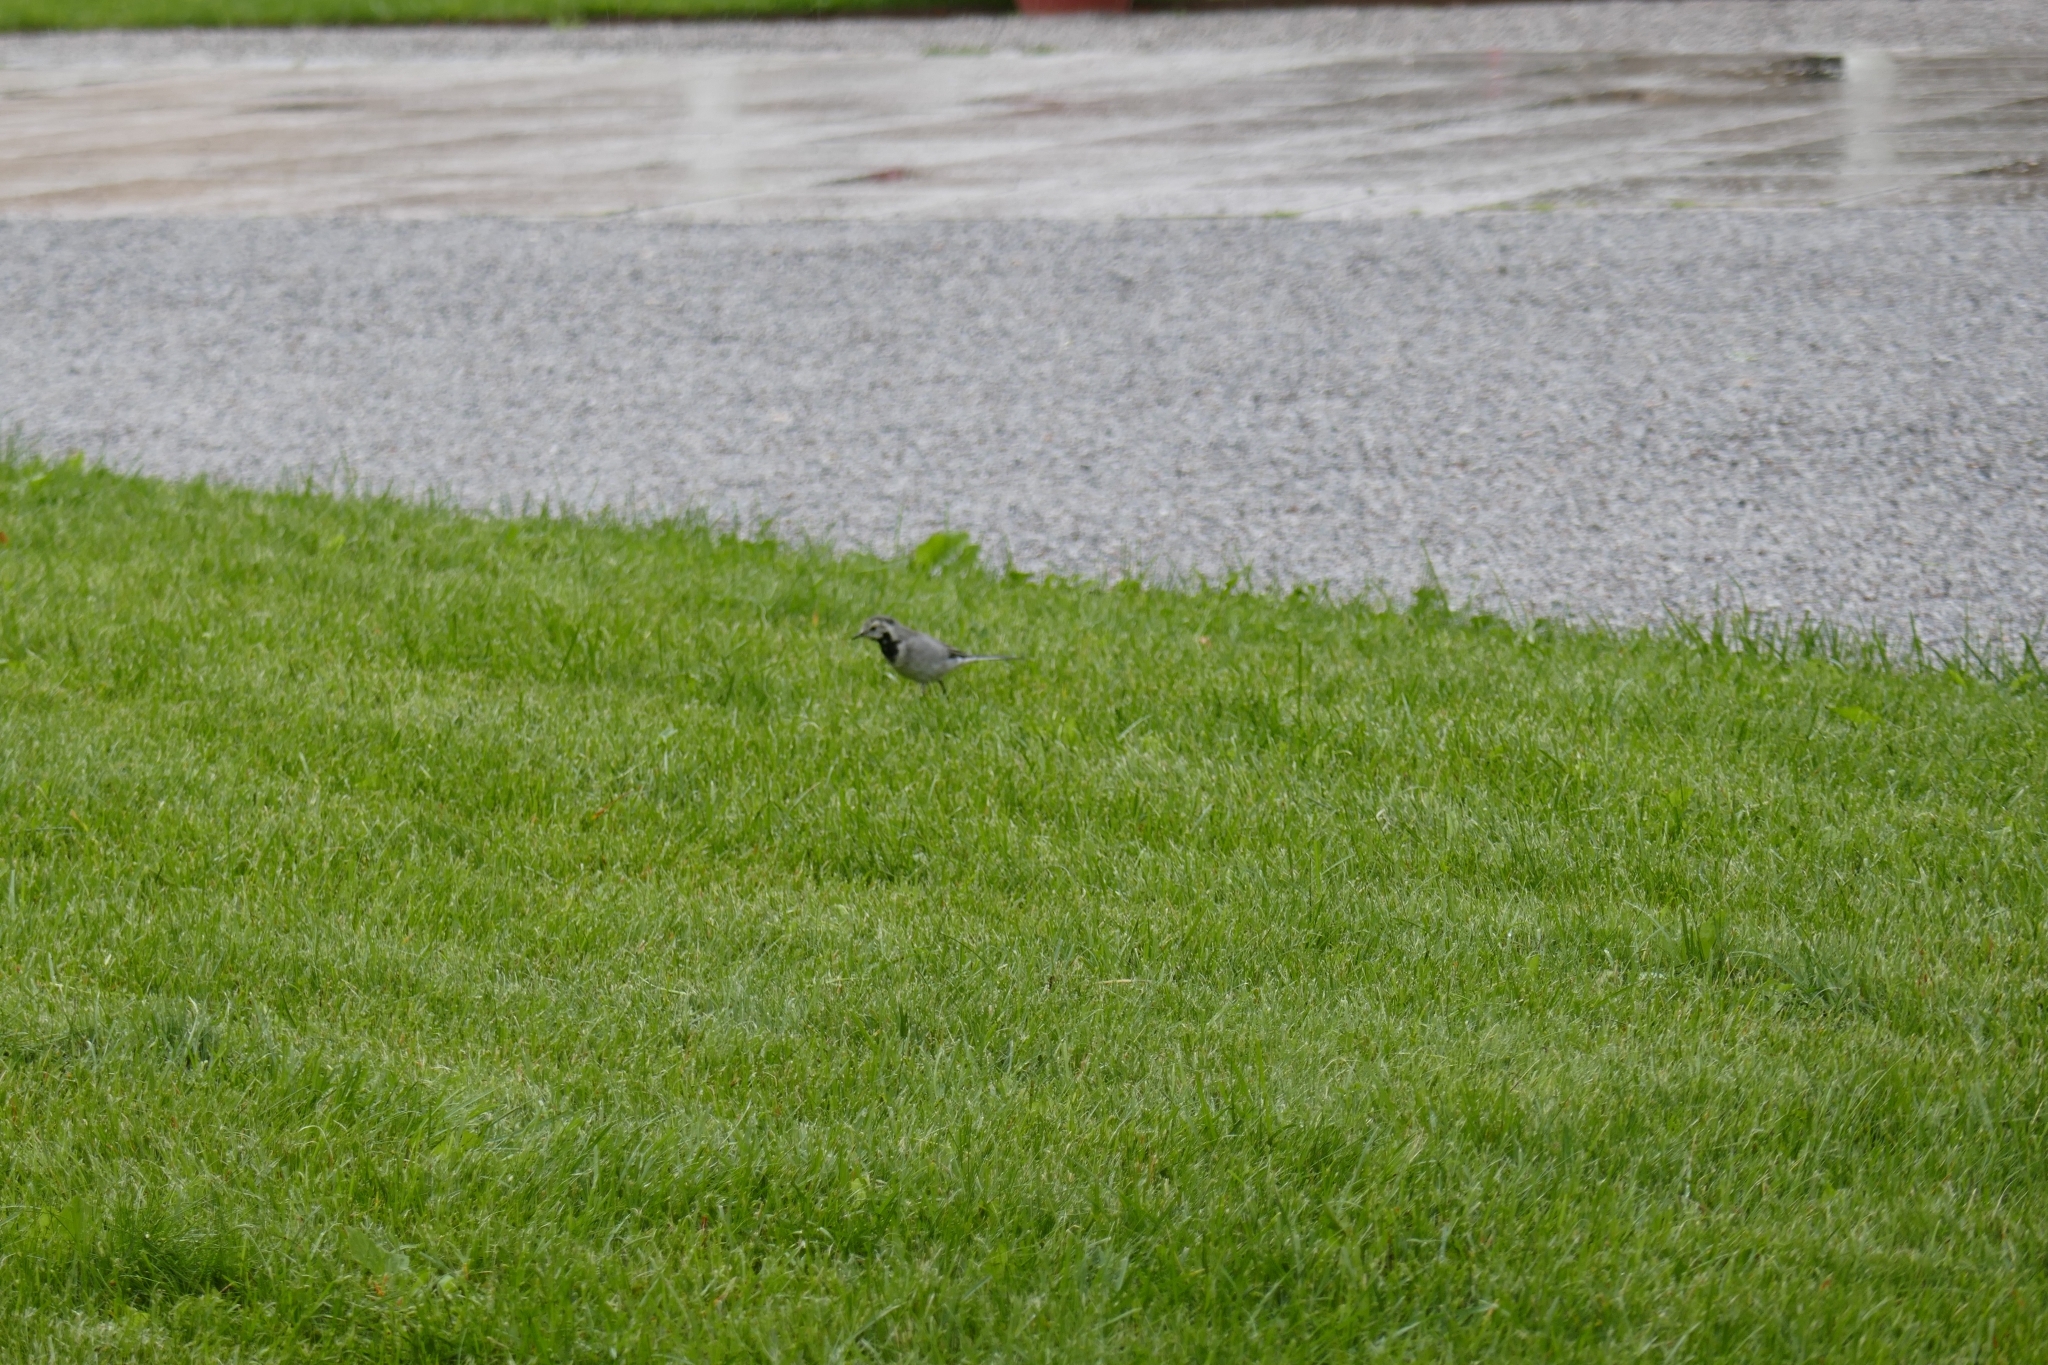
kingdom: Animalia
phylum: Chordata
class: Aves
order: Passeriformes
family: Motacillidae
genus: Motacilla
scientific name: Motacilla alba
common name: White wagtail
